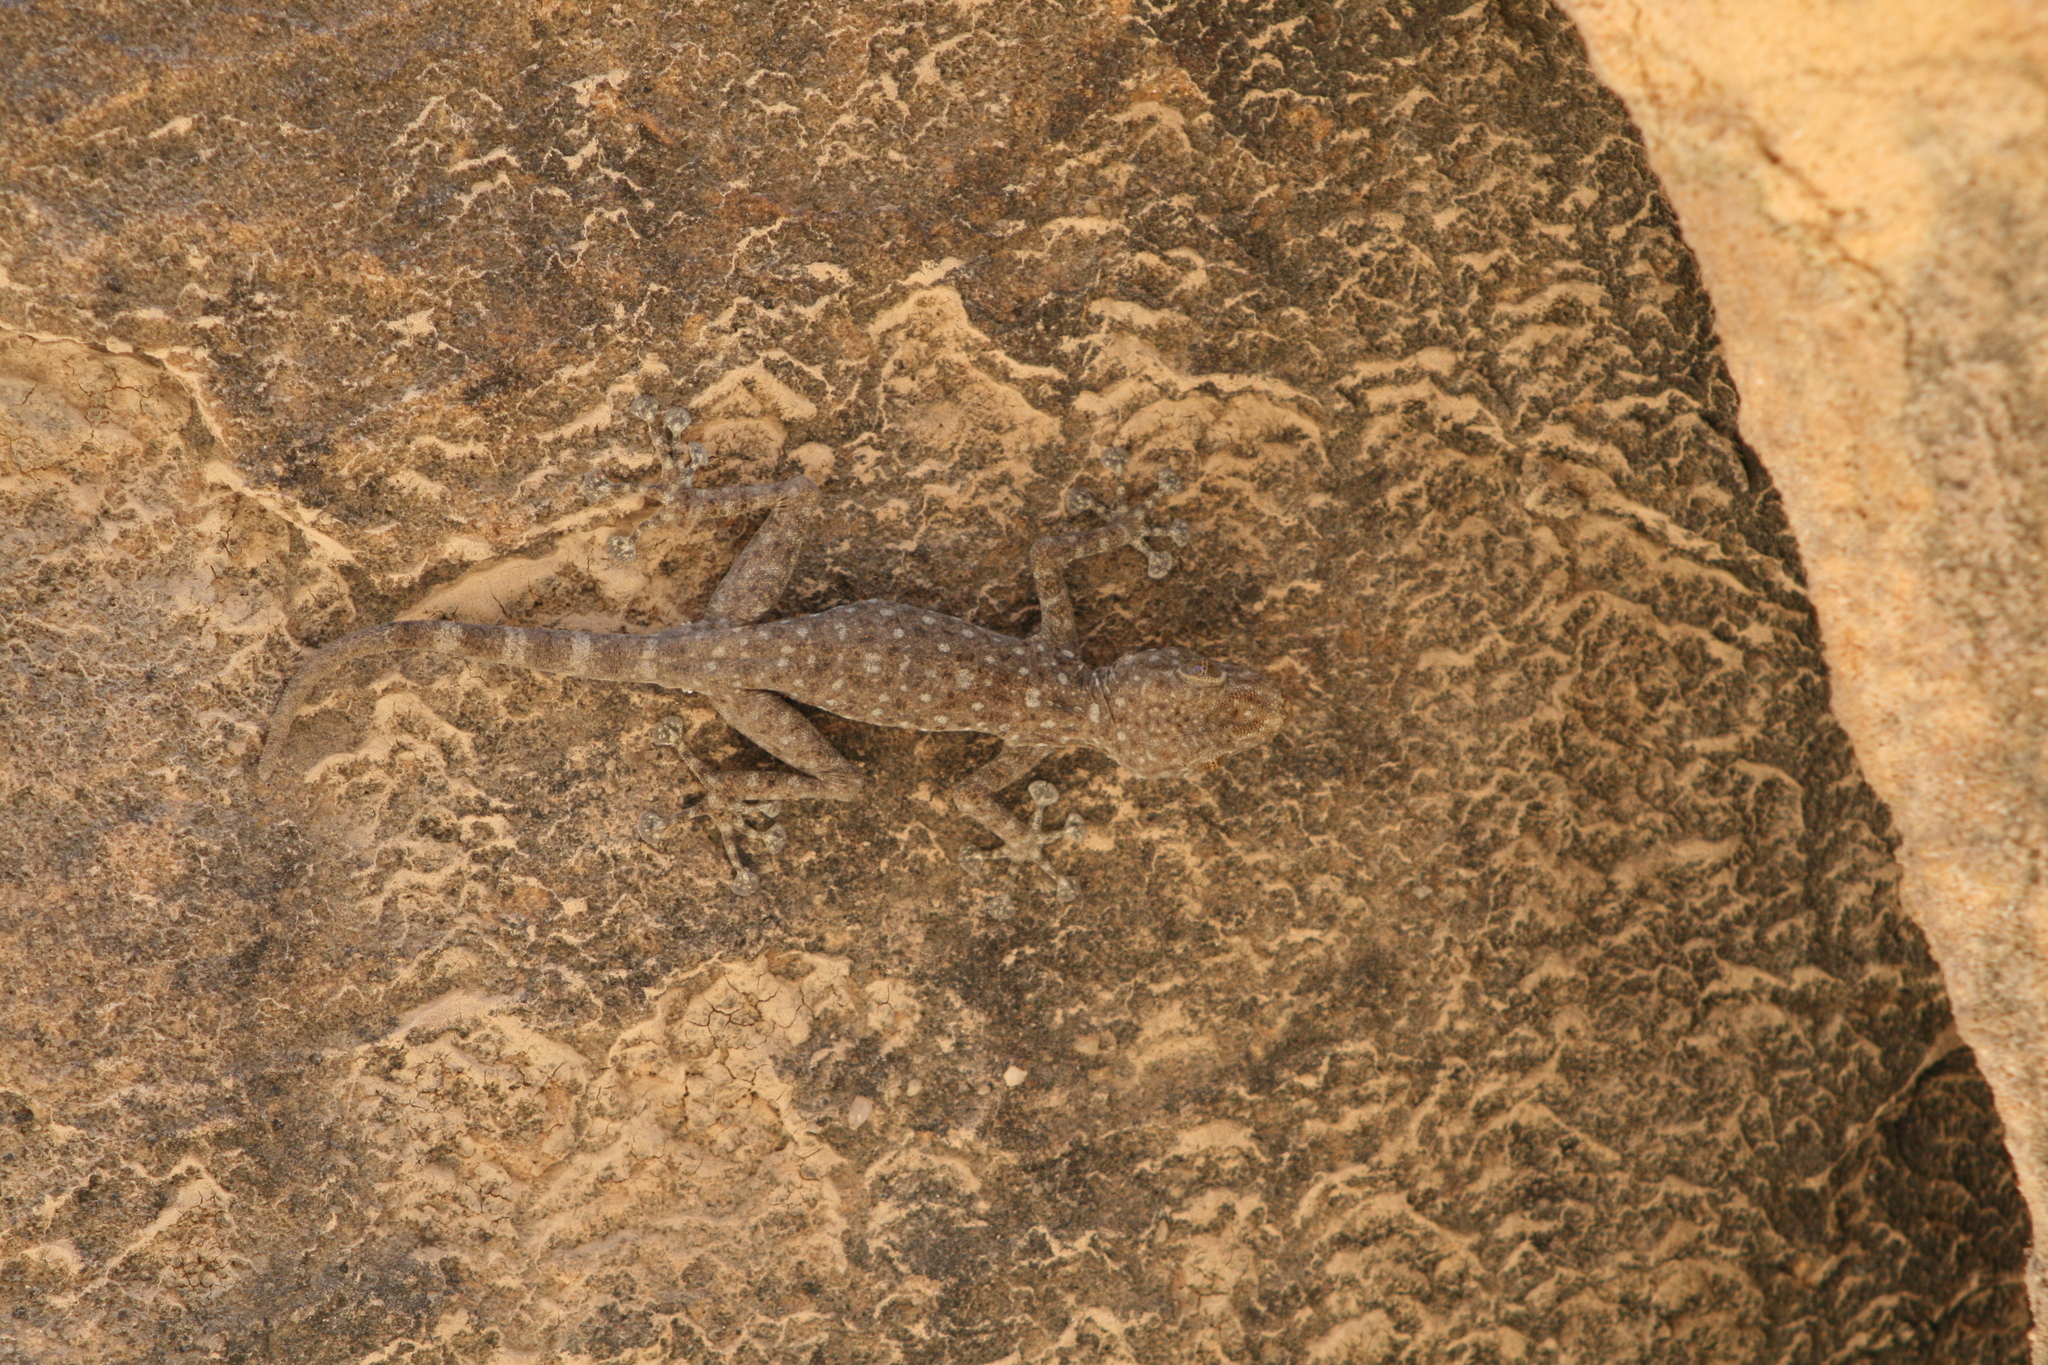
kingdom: Animalia
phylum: Chordata
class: Squamata
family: Phyllodactylidae
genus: Ptyodactylus
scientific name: Ptyodactylus guttatus
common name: Sinai fan-fingered gecko
